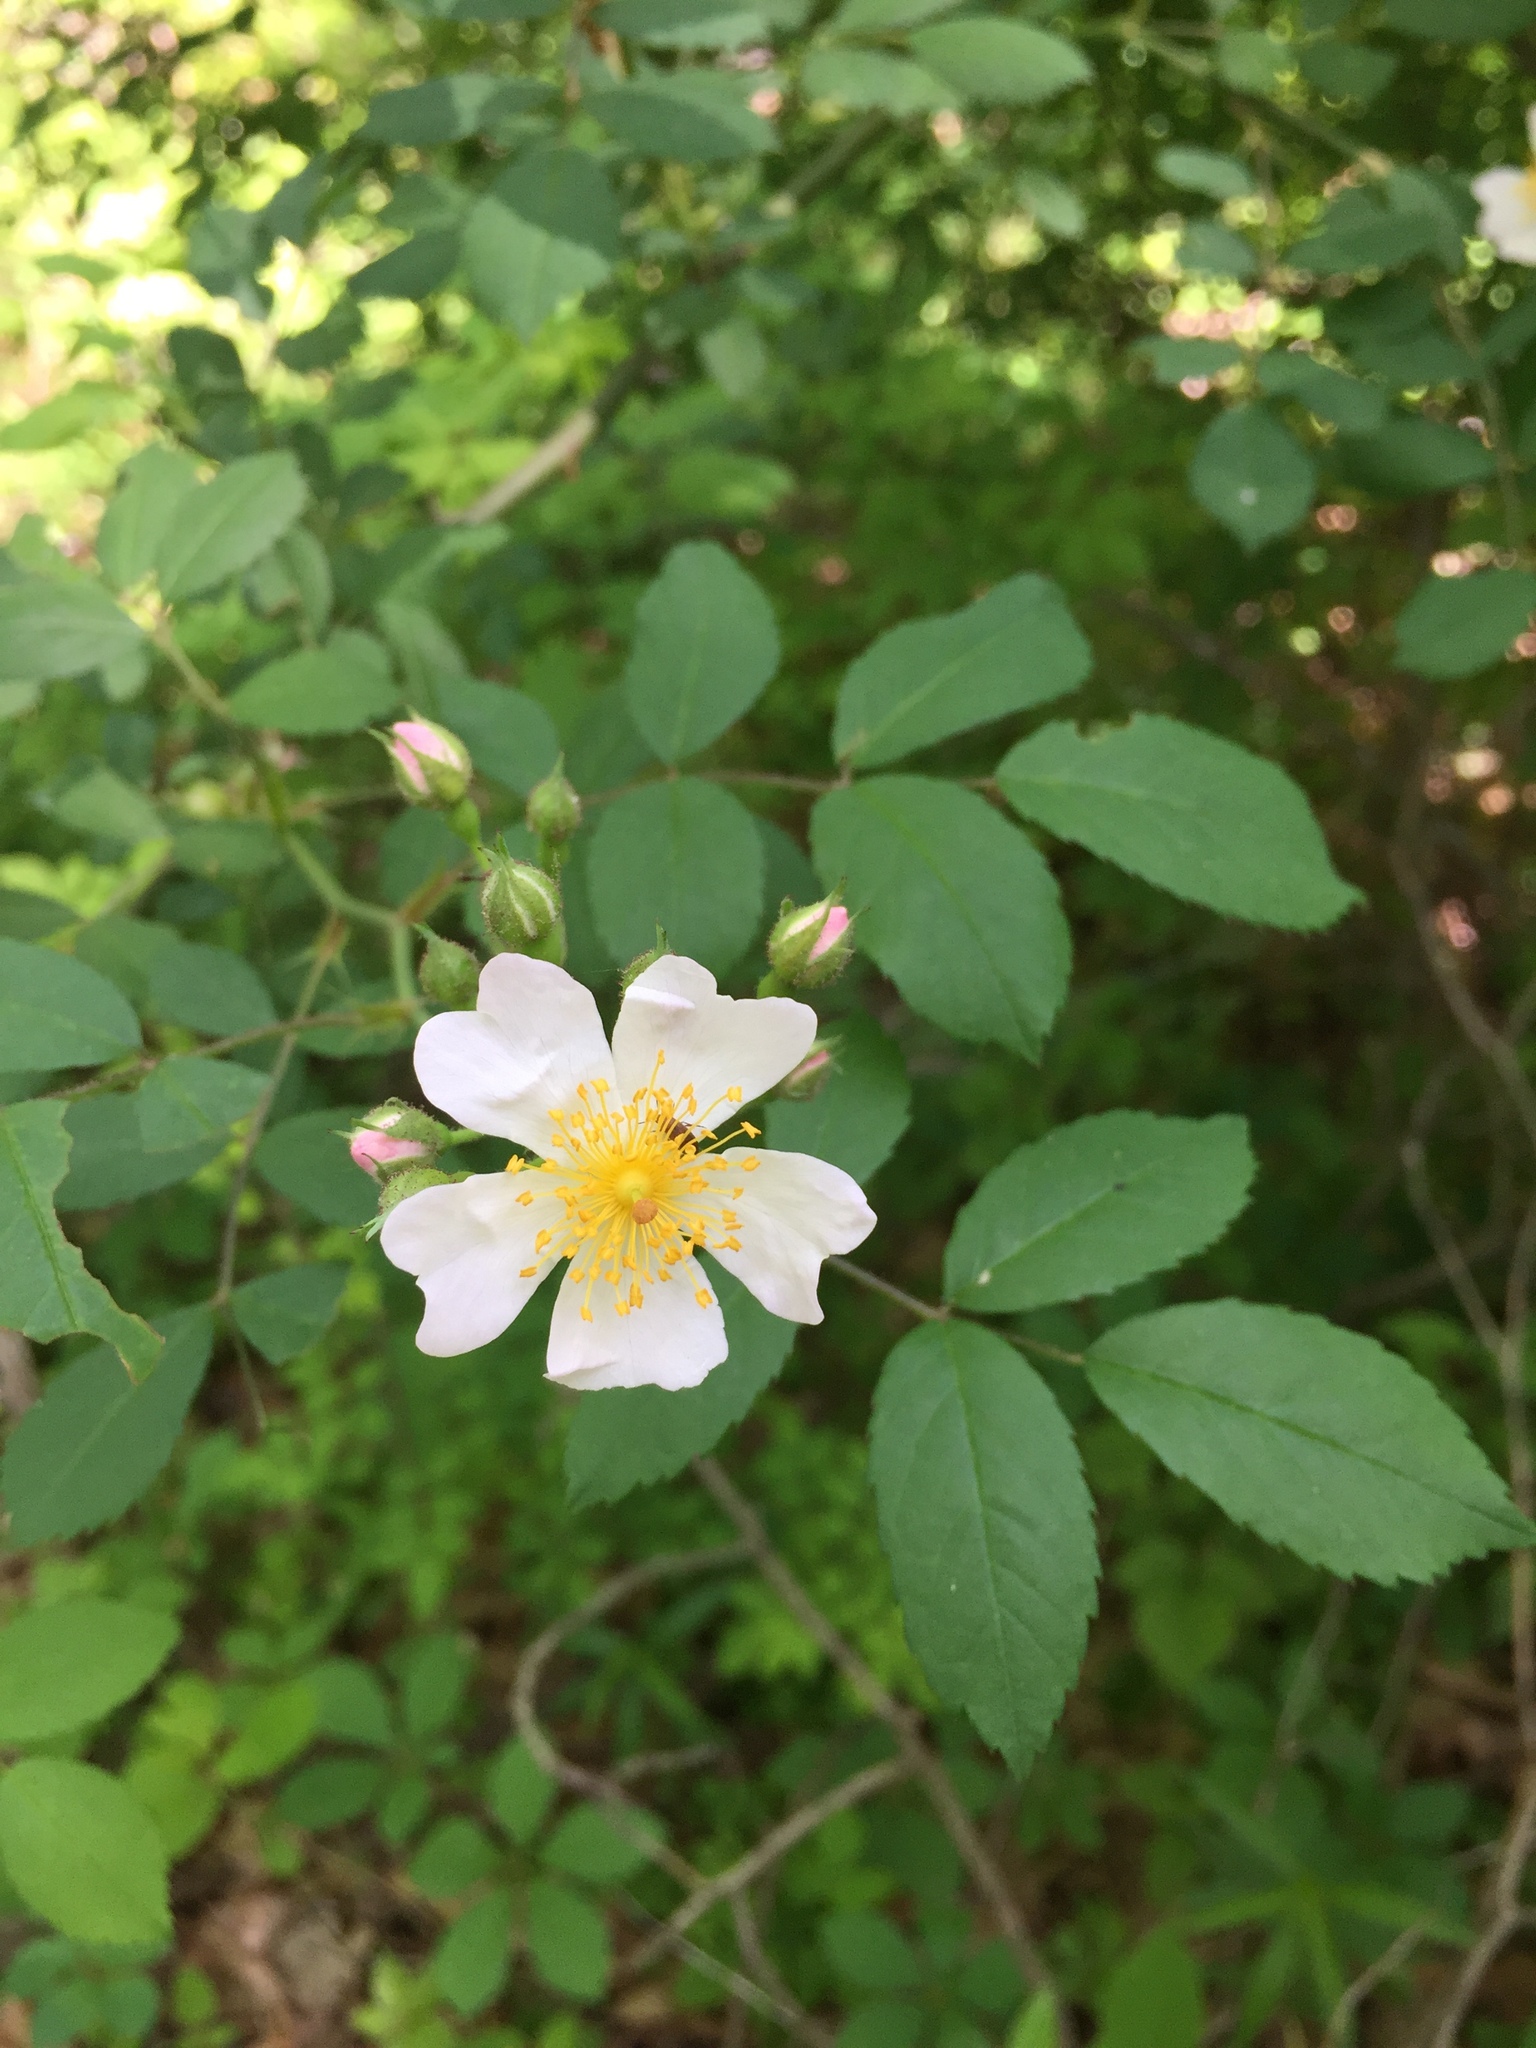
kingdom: Plantae
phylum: Tracheophyta
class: Magnoliopsida
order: Rosales
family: Rosaceae
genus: Rosa
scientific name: Rosa multiflora
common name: Multiflora rose
